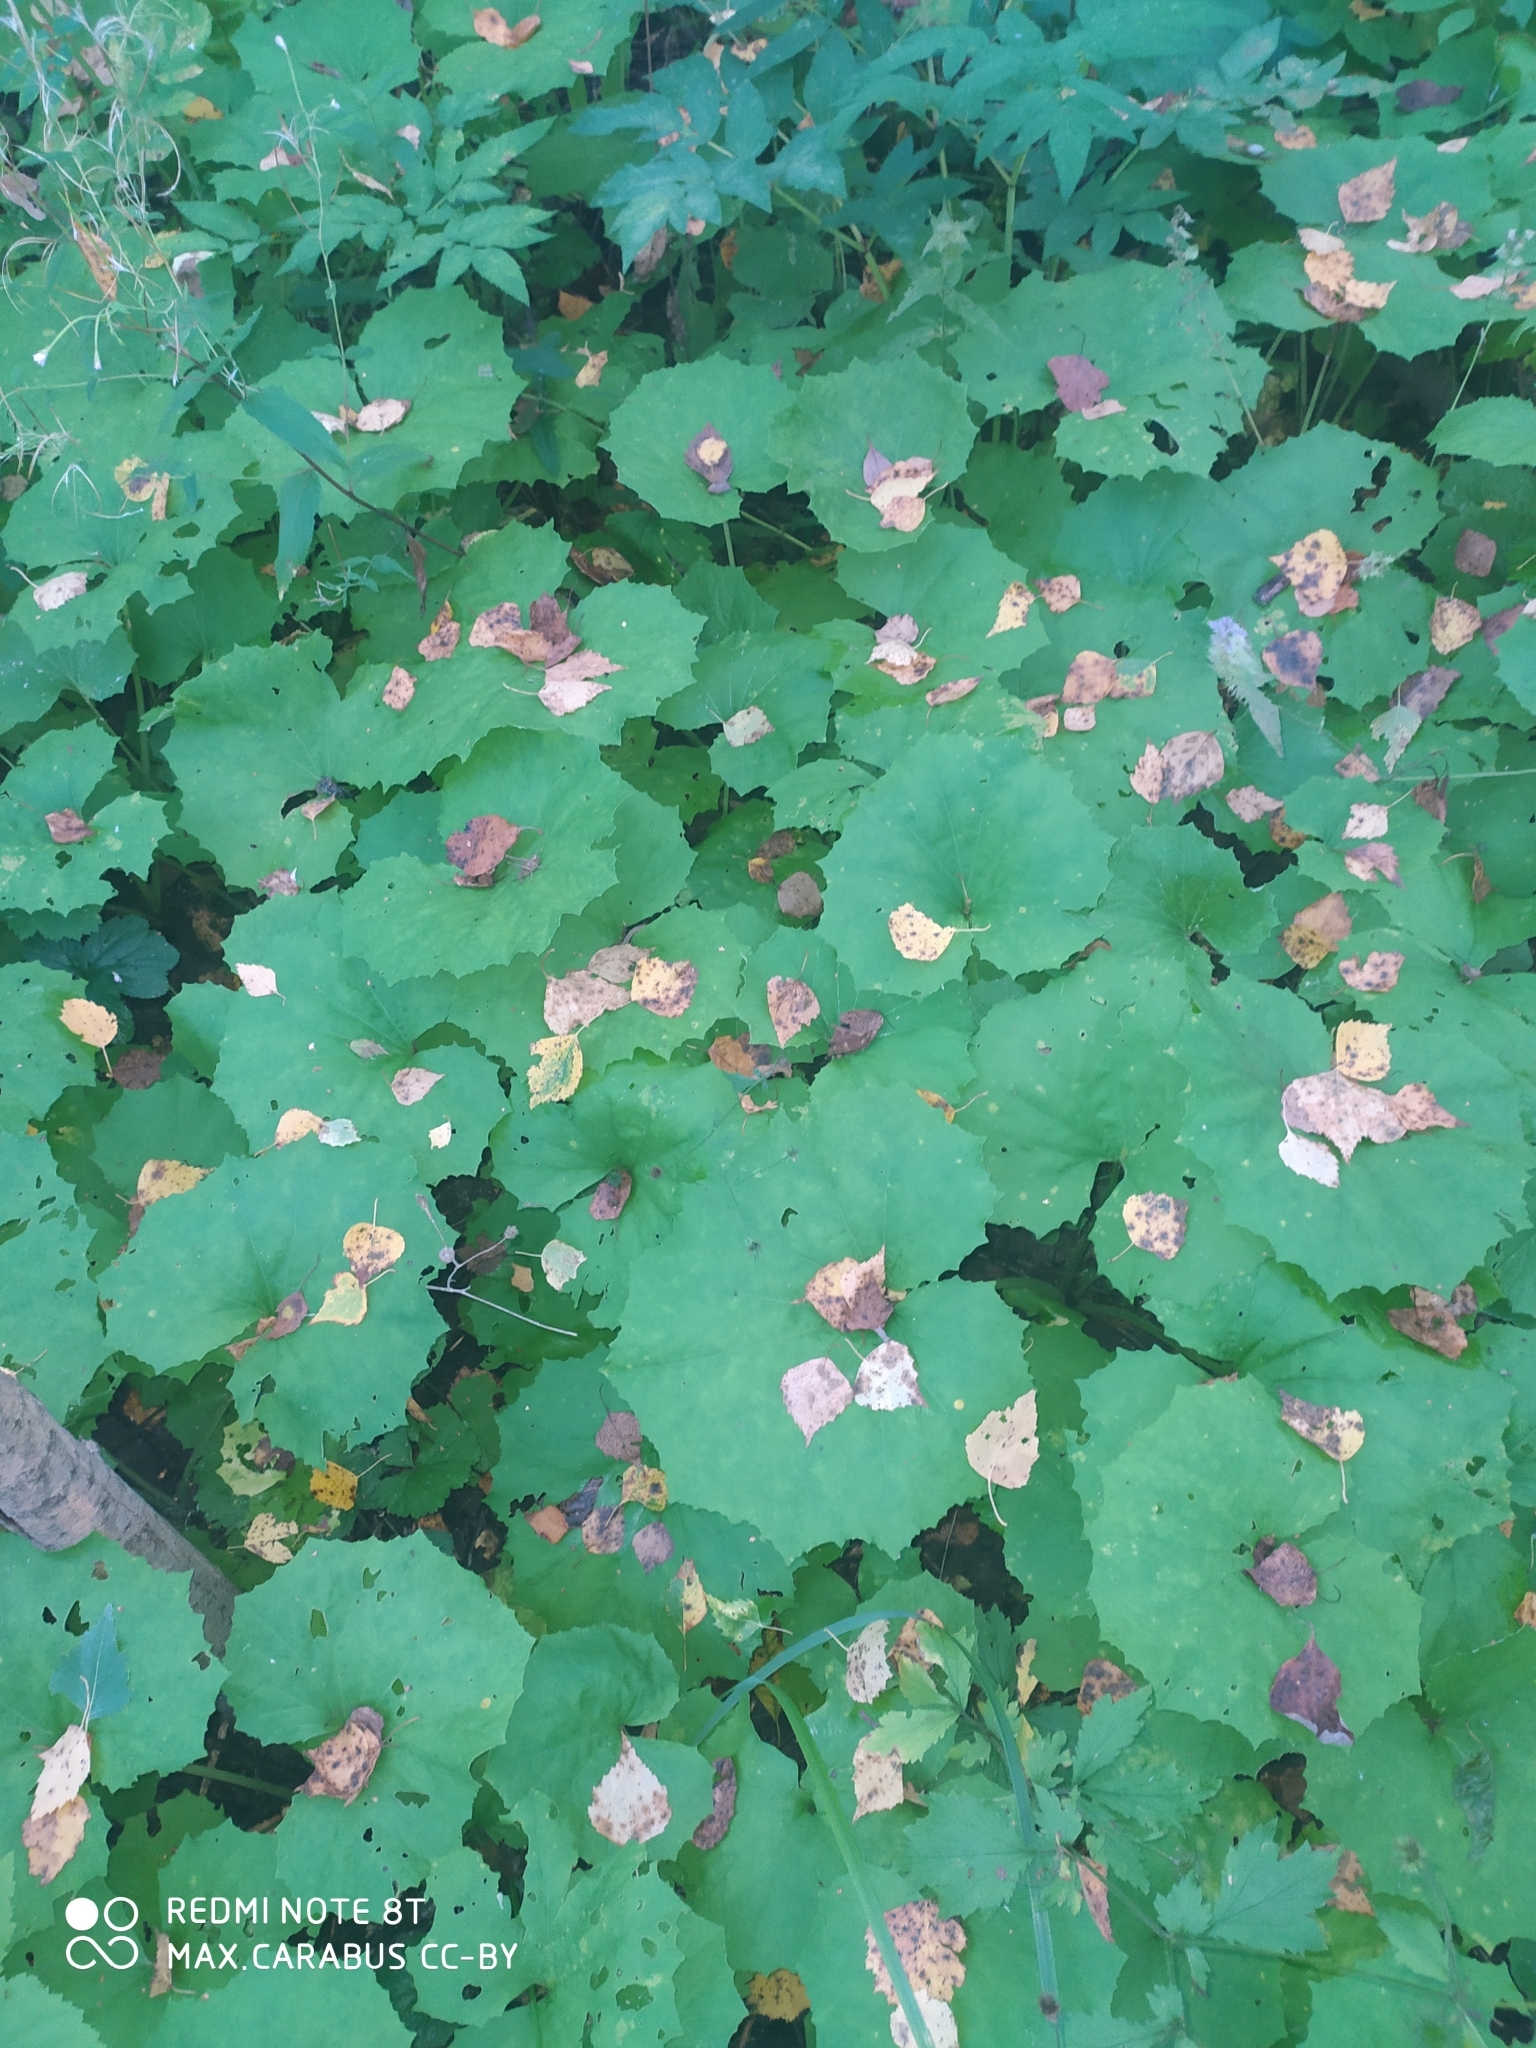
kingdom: Plantae
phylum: Tracheophyta
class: Magnoliopsida
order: Asterales
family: Asteraceae
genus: Tussilago
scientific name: Tussilago farfara
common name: Coltsfoot
